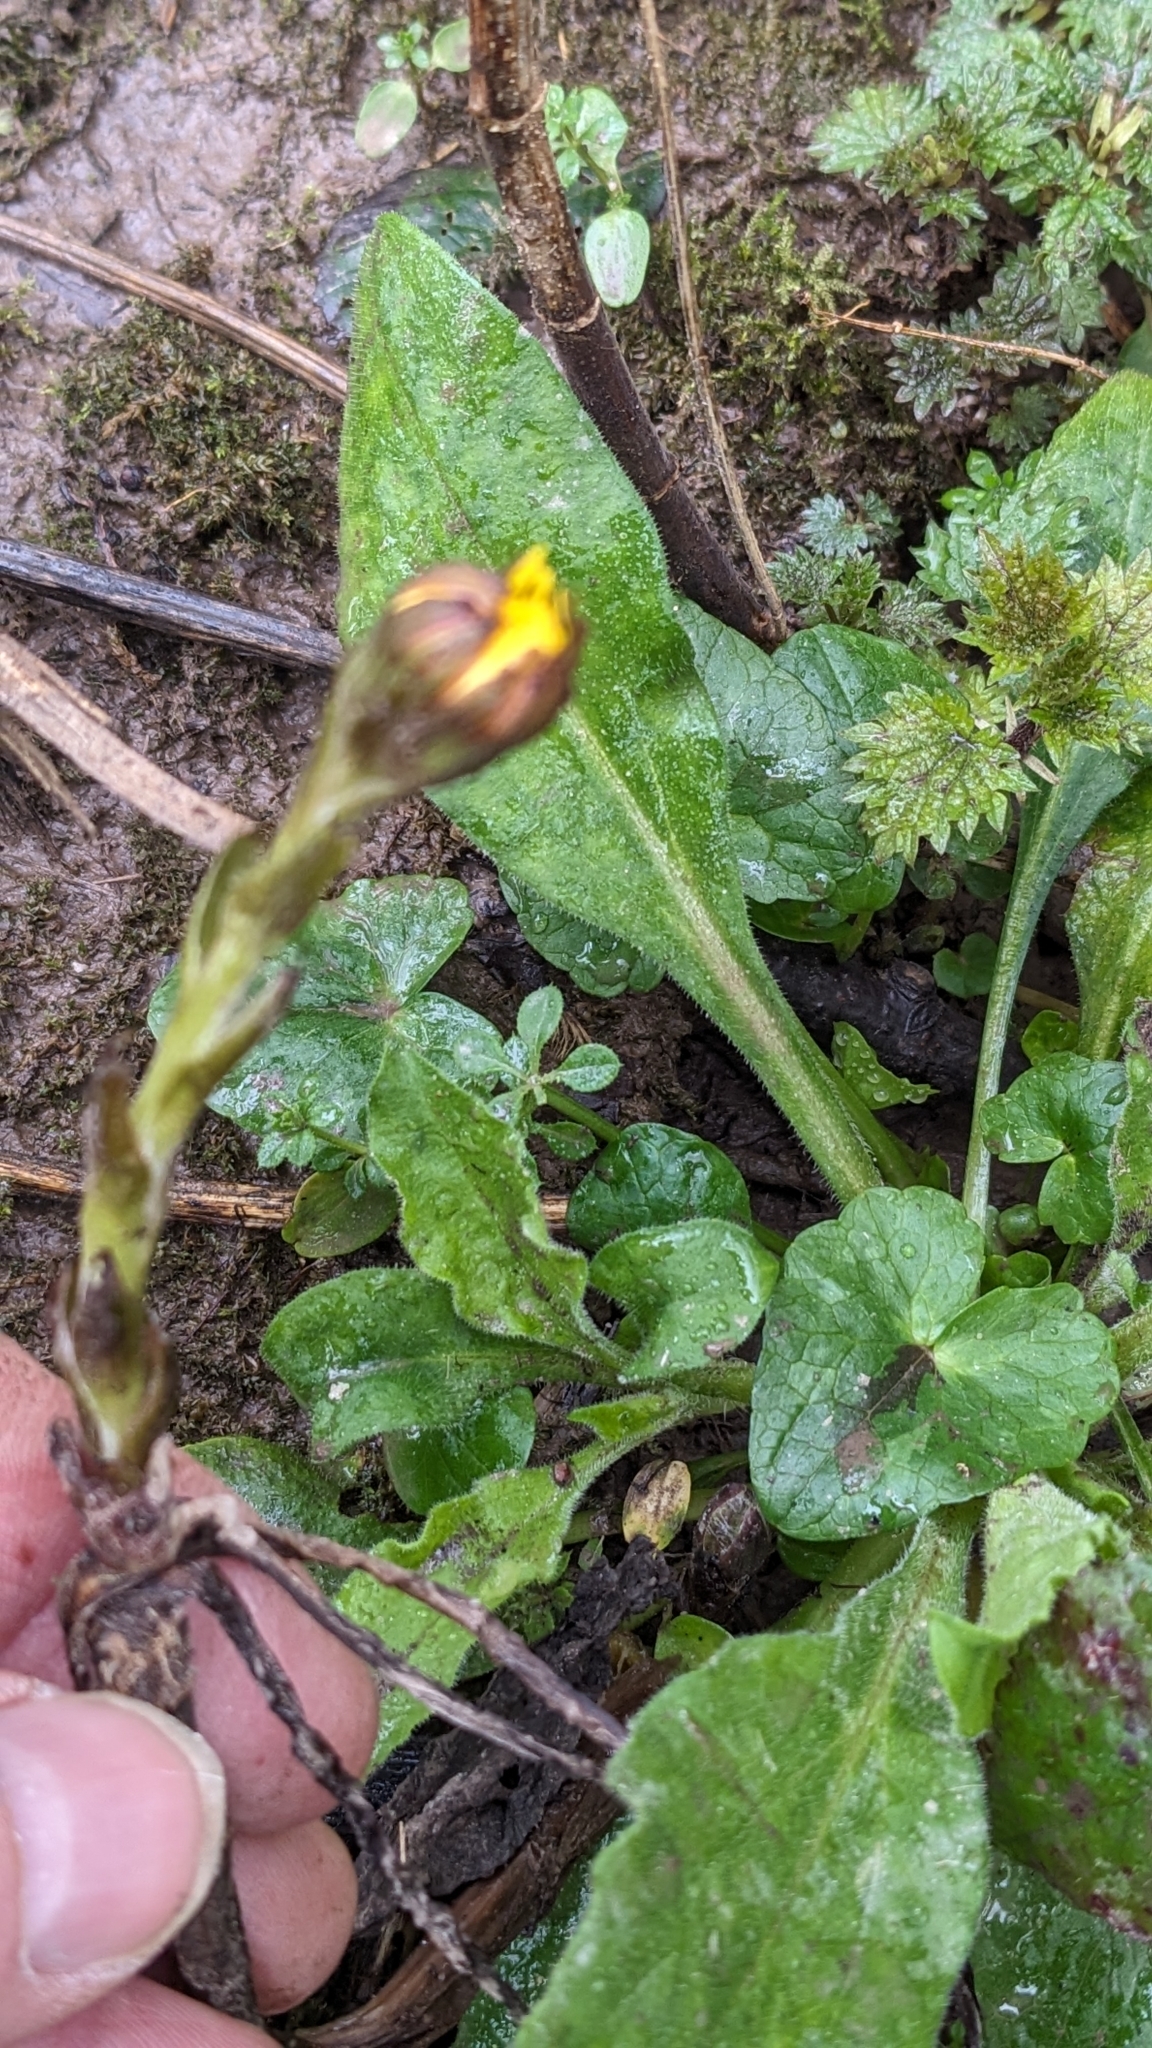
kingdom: Plantae
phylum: Tracheophyta
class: Magnoliopsida
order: Asterales
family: Asteraceae
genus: Tussilago
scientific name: Tussilago farfara
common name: Coltsfoot
